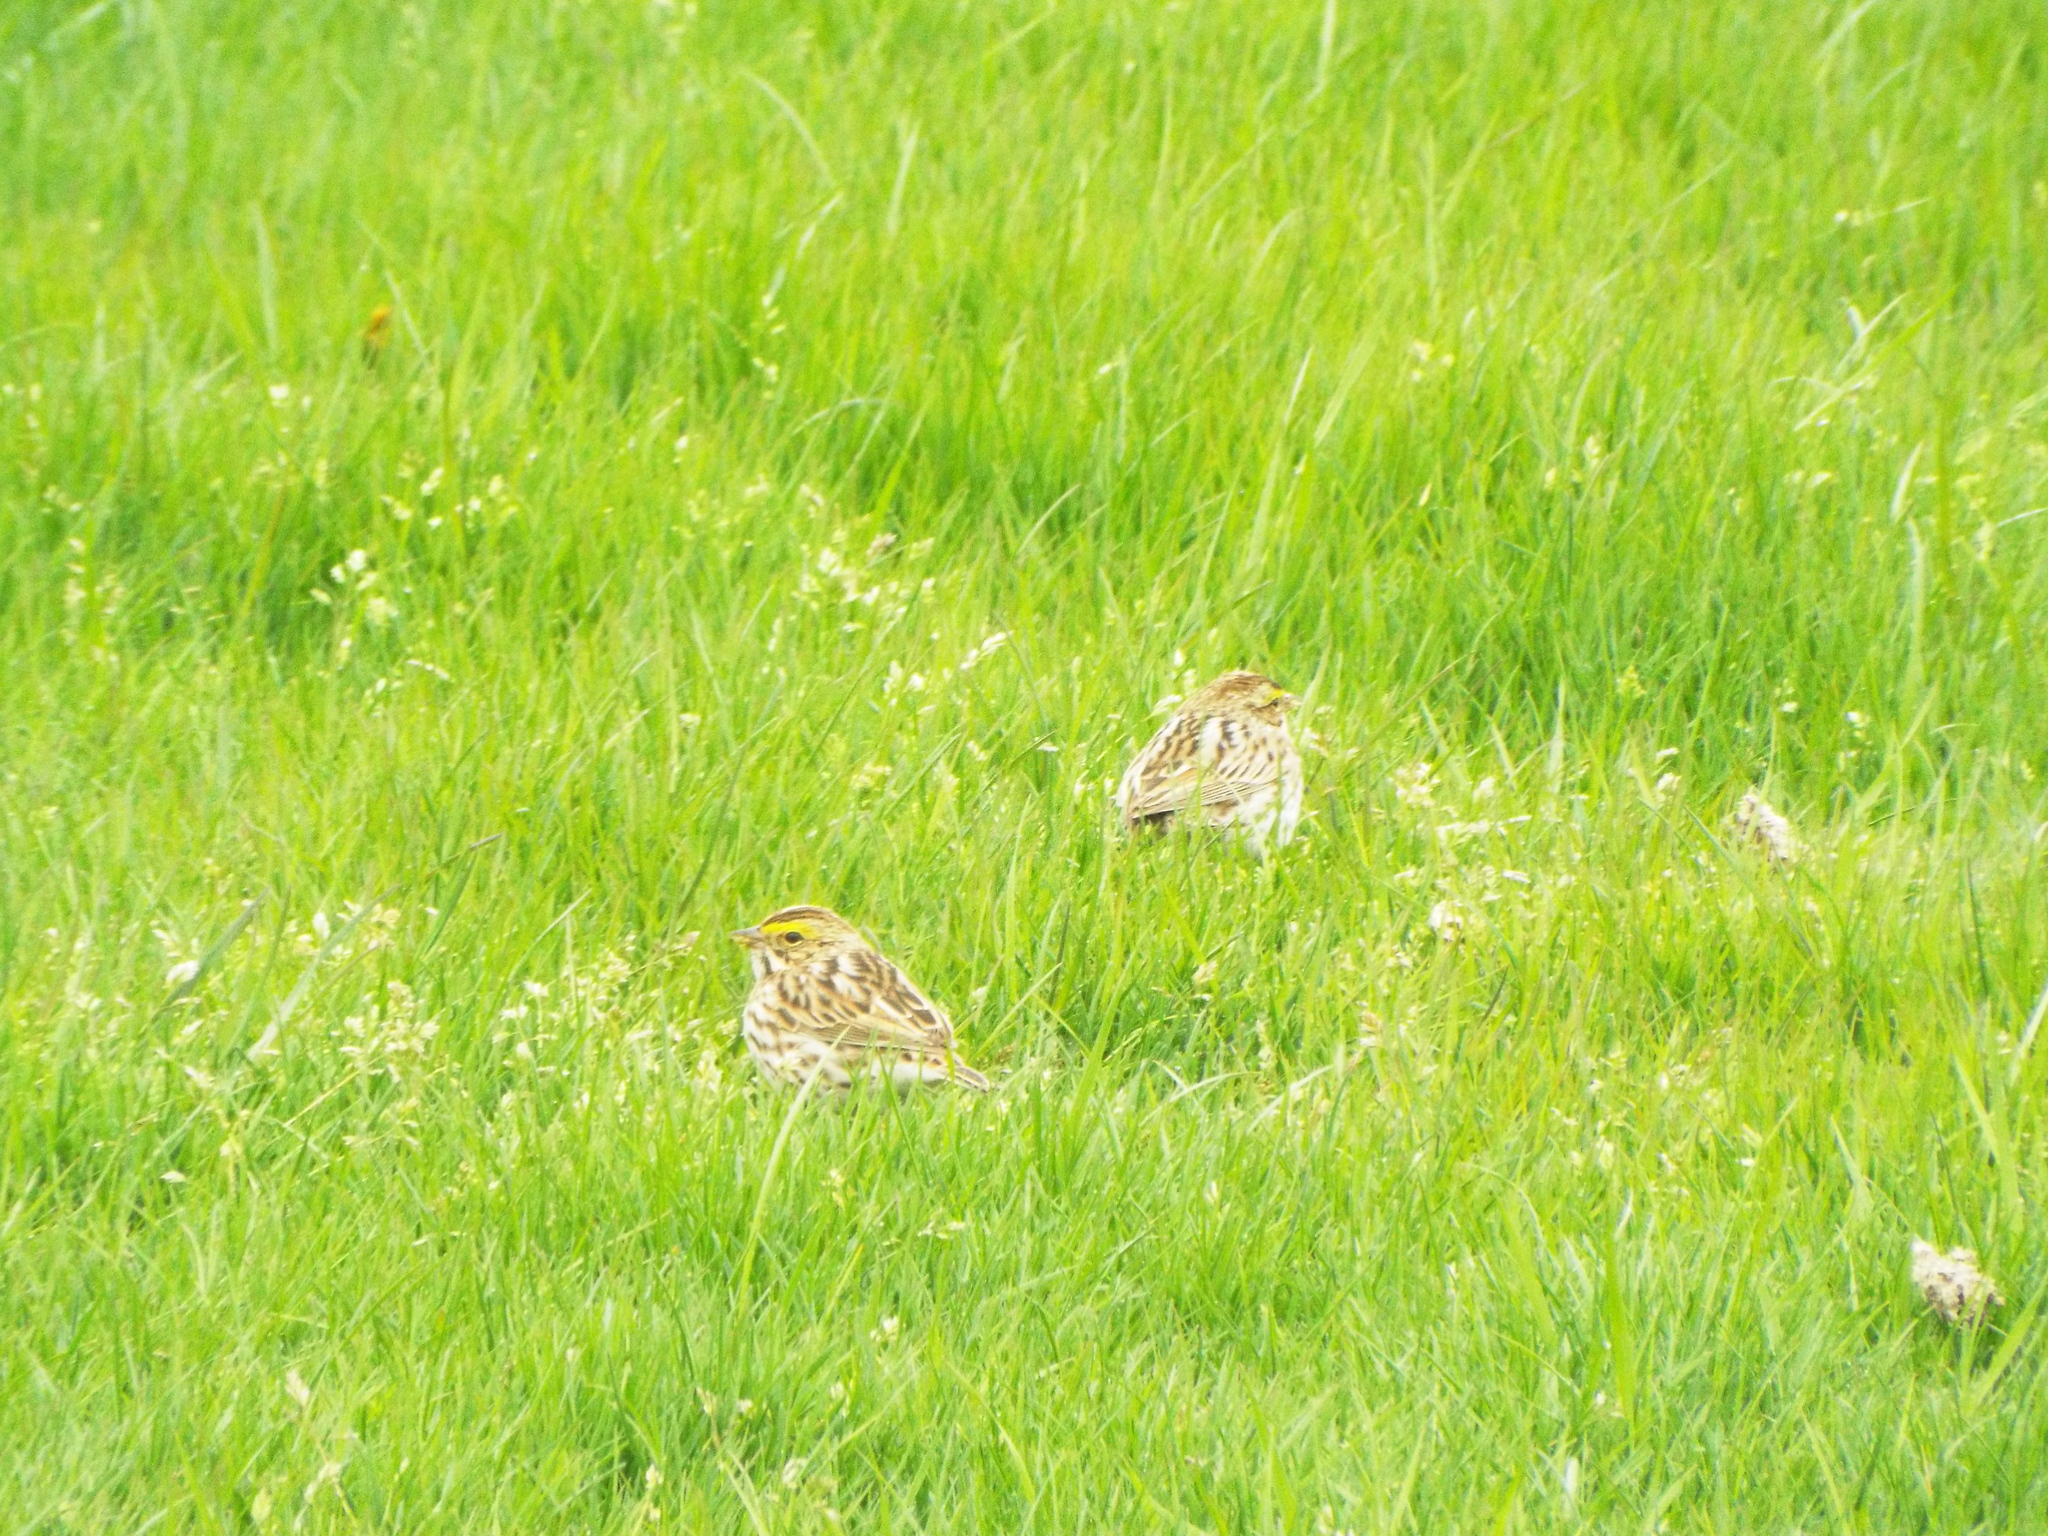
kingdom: Animalia
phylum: Chordata
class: Aves
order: Passeriformes
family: Passerellidae
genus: Passerculus
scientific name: Passerculus sandwichensis
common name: Savannah sparrow
